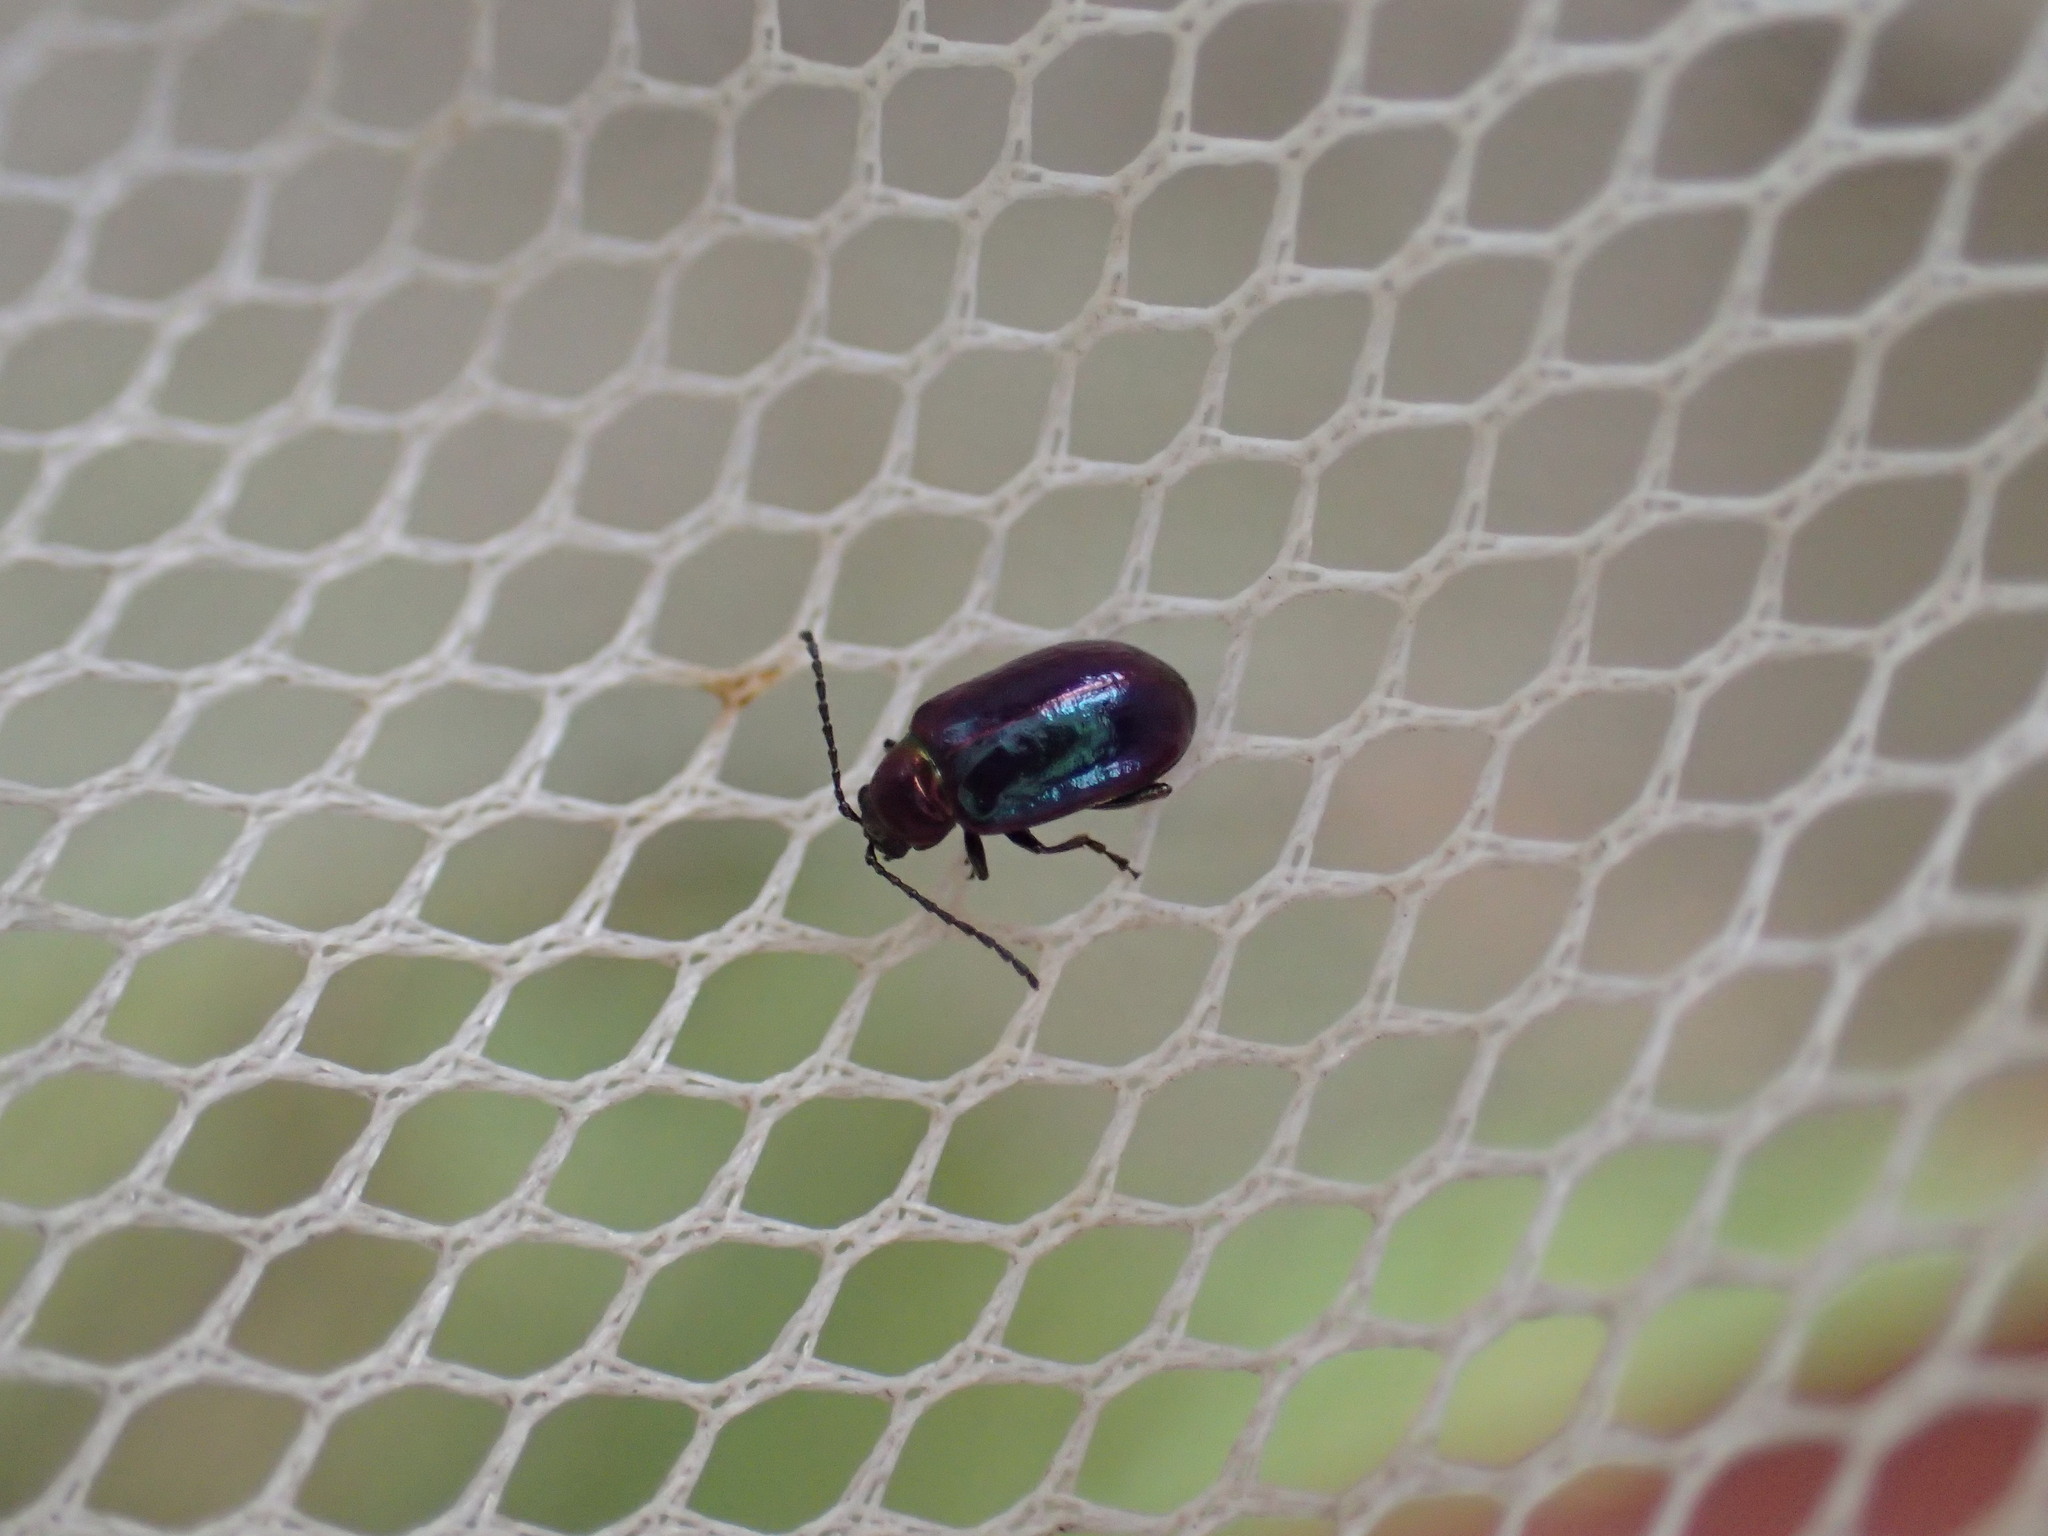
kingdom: Animalia
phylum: Arthropoda
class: Insecta
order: Coleoptera
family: Chrysomelidae
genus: Altica
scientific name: Altica torquata
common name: Leaf beetle
